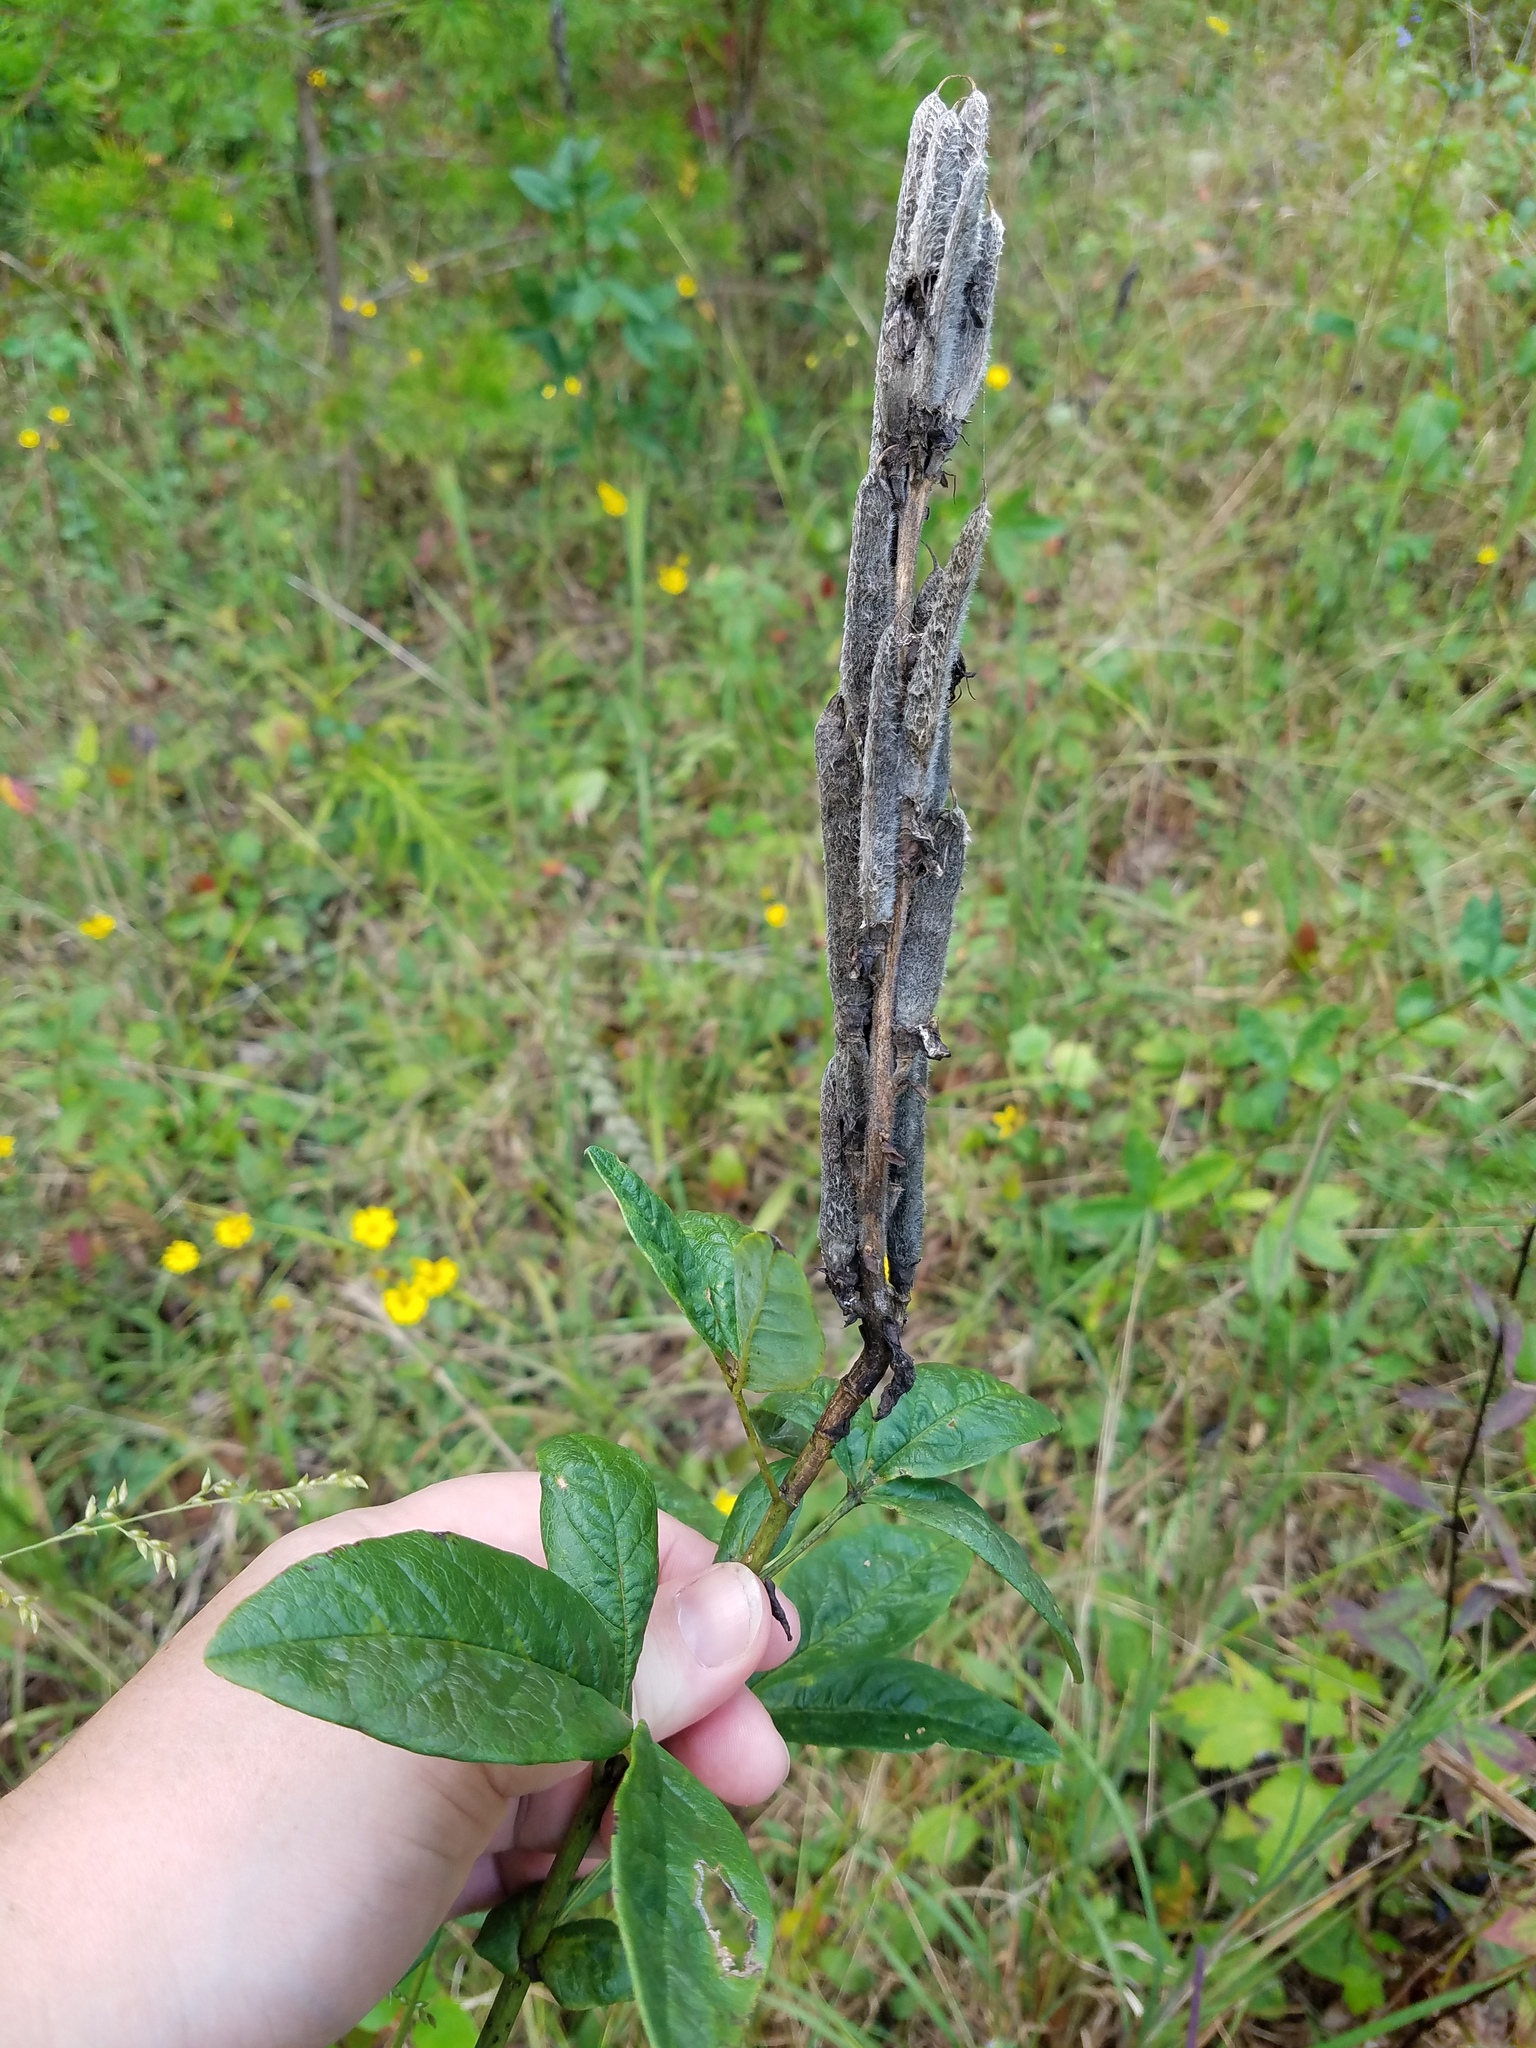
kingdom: Plantae
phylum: Tracheophyta
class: Magnoliopsida
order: Fabales
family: Fabaceae
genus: Thermopsis
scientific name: Thermopsis villosa
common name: Carolina-lupin
